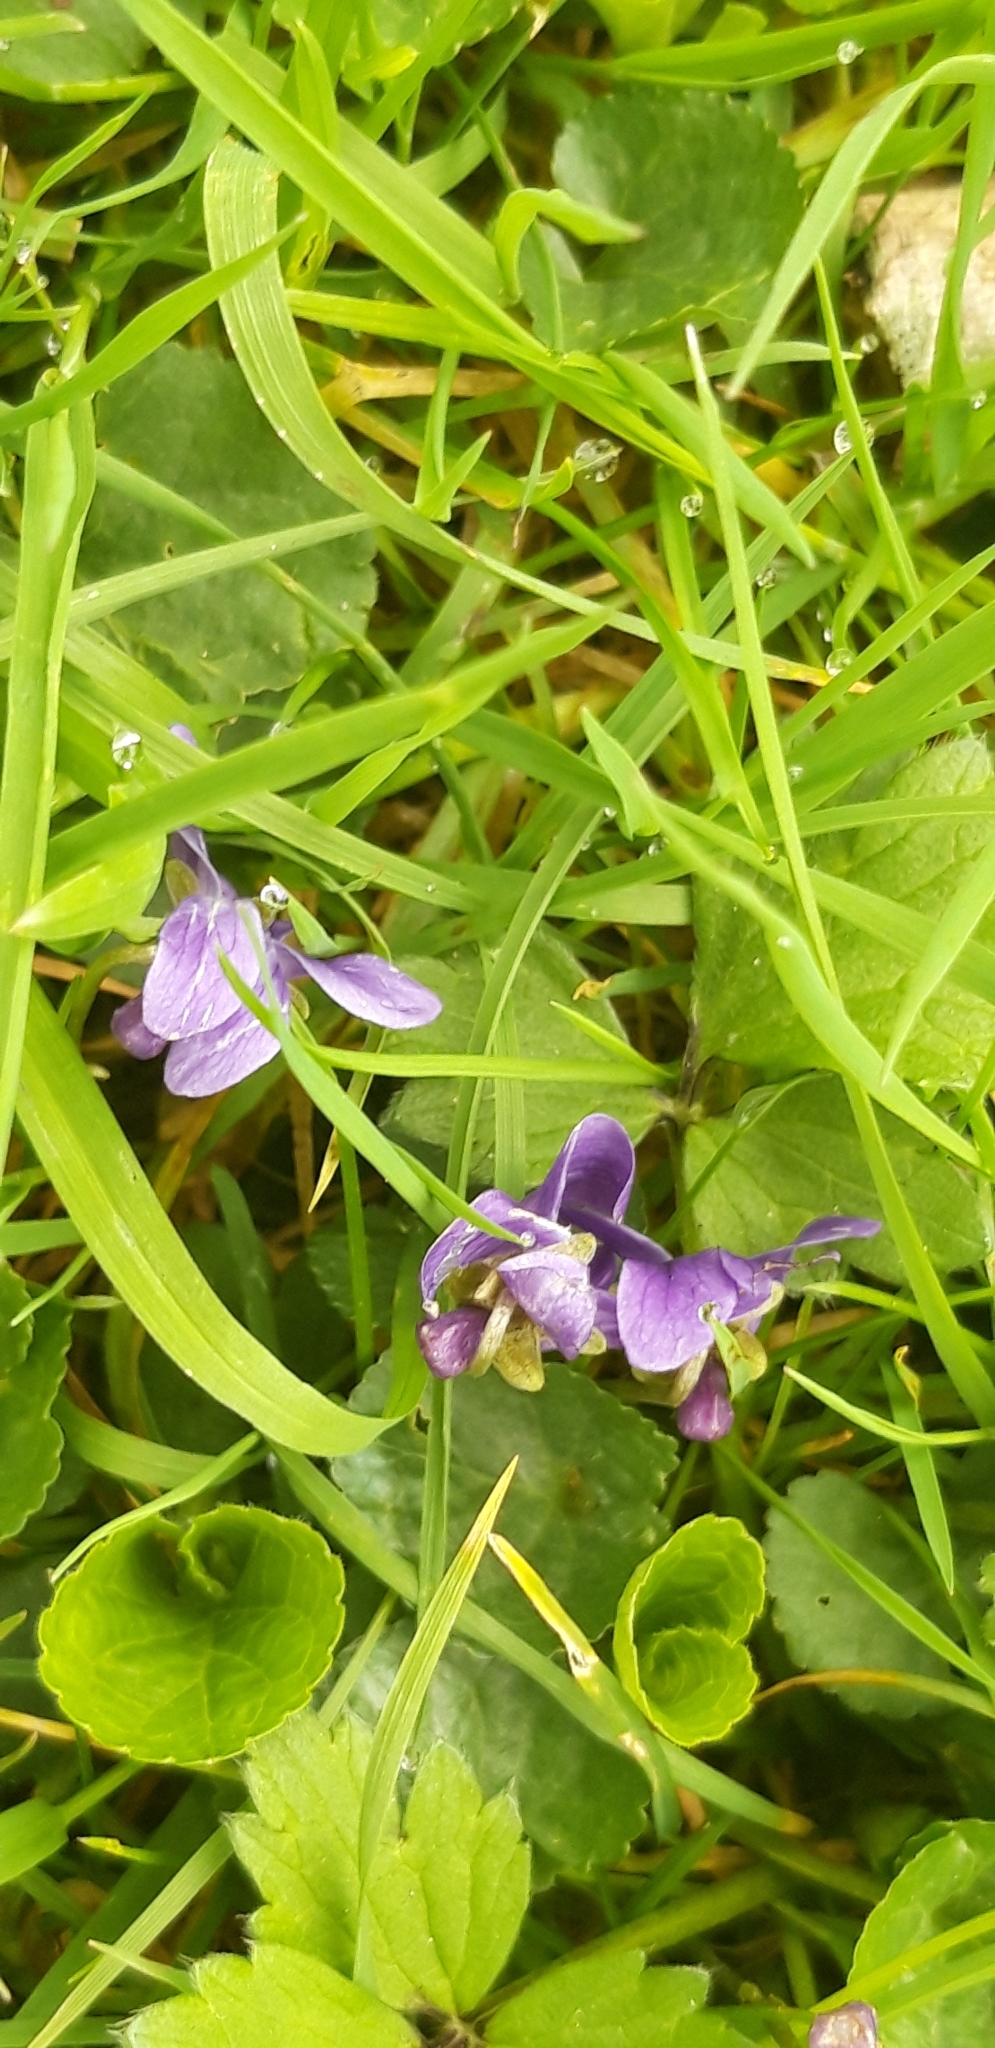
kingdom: Plantae
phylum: Tracheophyta
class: Magnoliopsida
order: Malpighiales
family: Violaceae
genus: Viola
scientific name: Viola odorata
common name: Sweet violet
